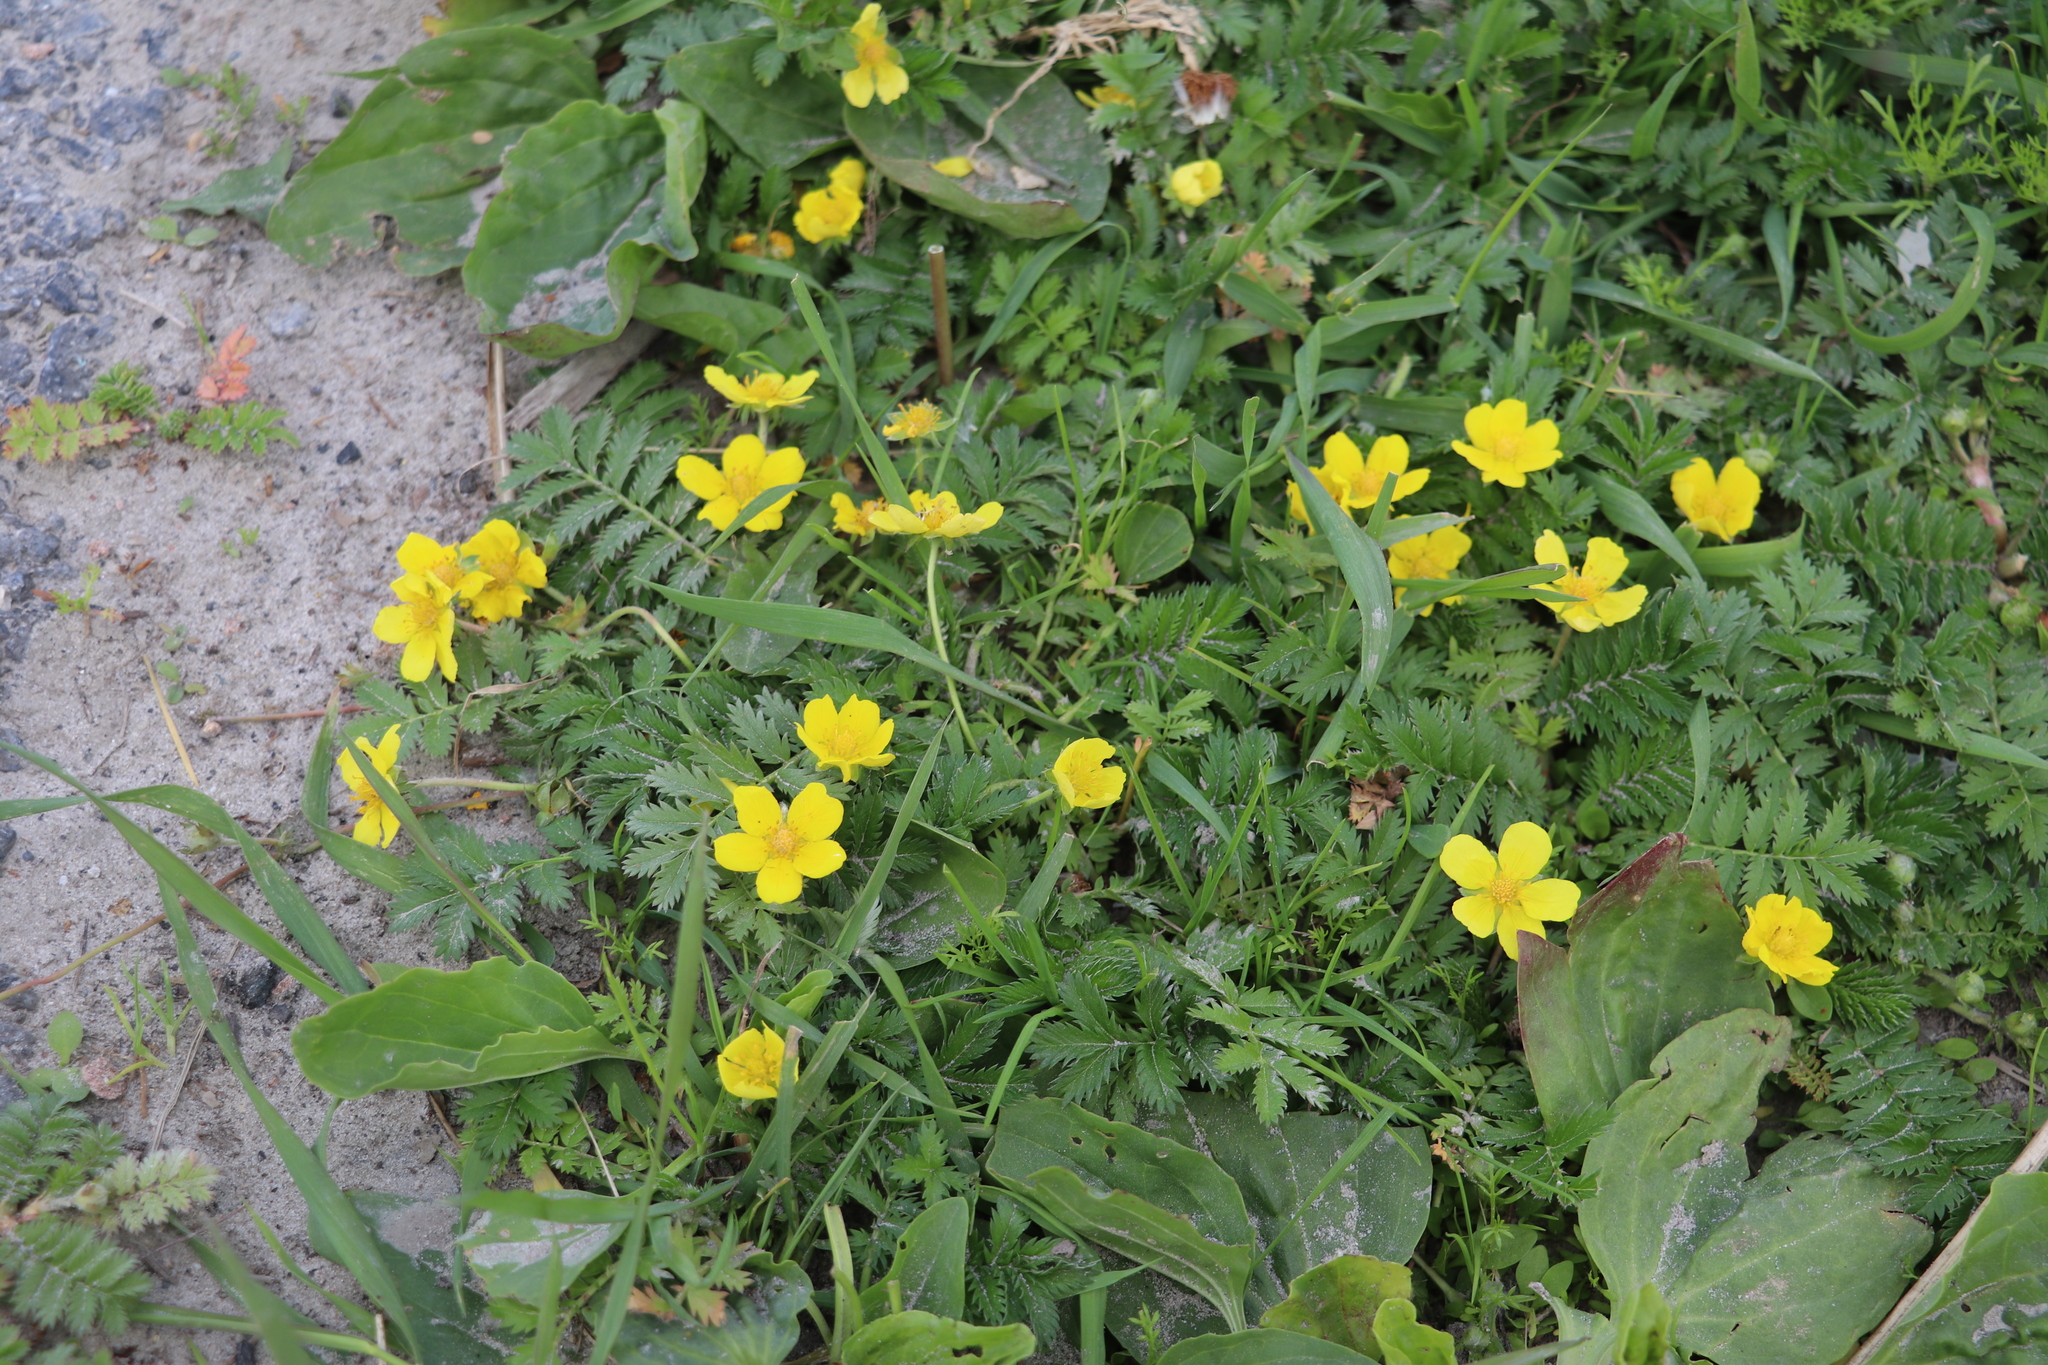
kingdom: Plantae
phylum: Tracheophyta
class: Magnoliopsida
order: Rosales
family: Rosaceae
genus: Argentina
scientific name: Argentina anserina
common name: Common silverweed
